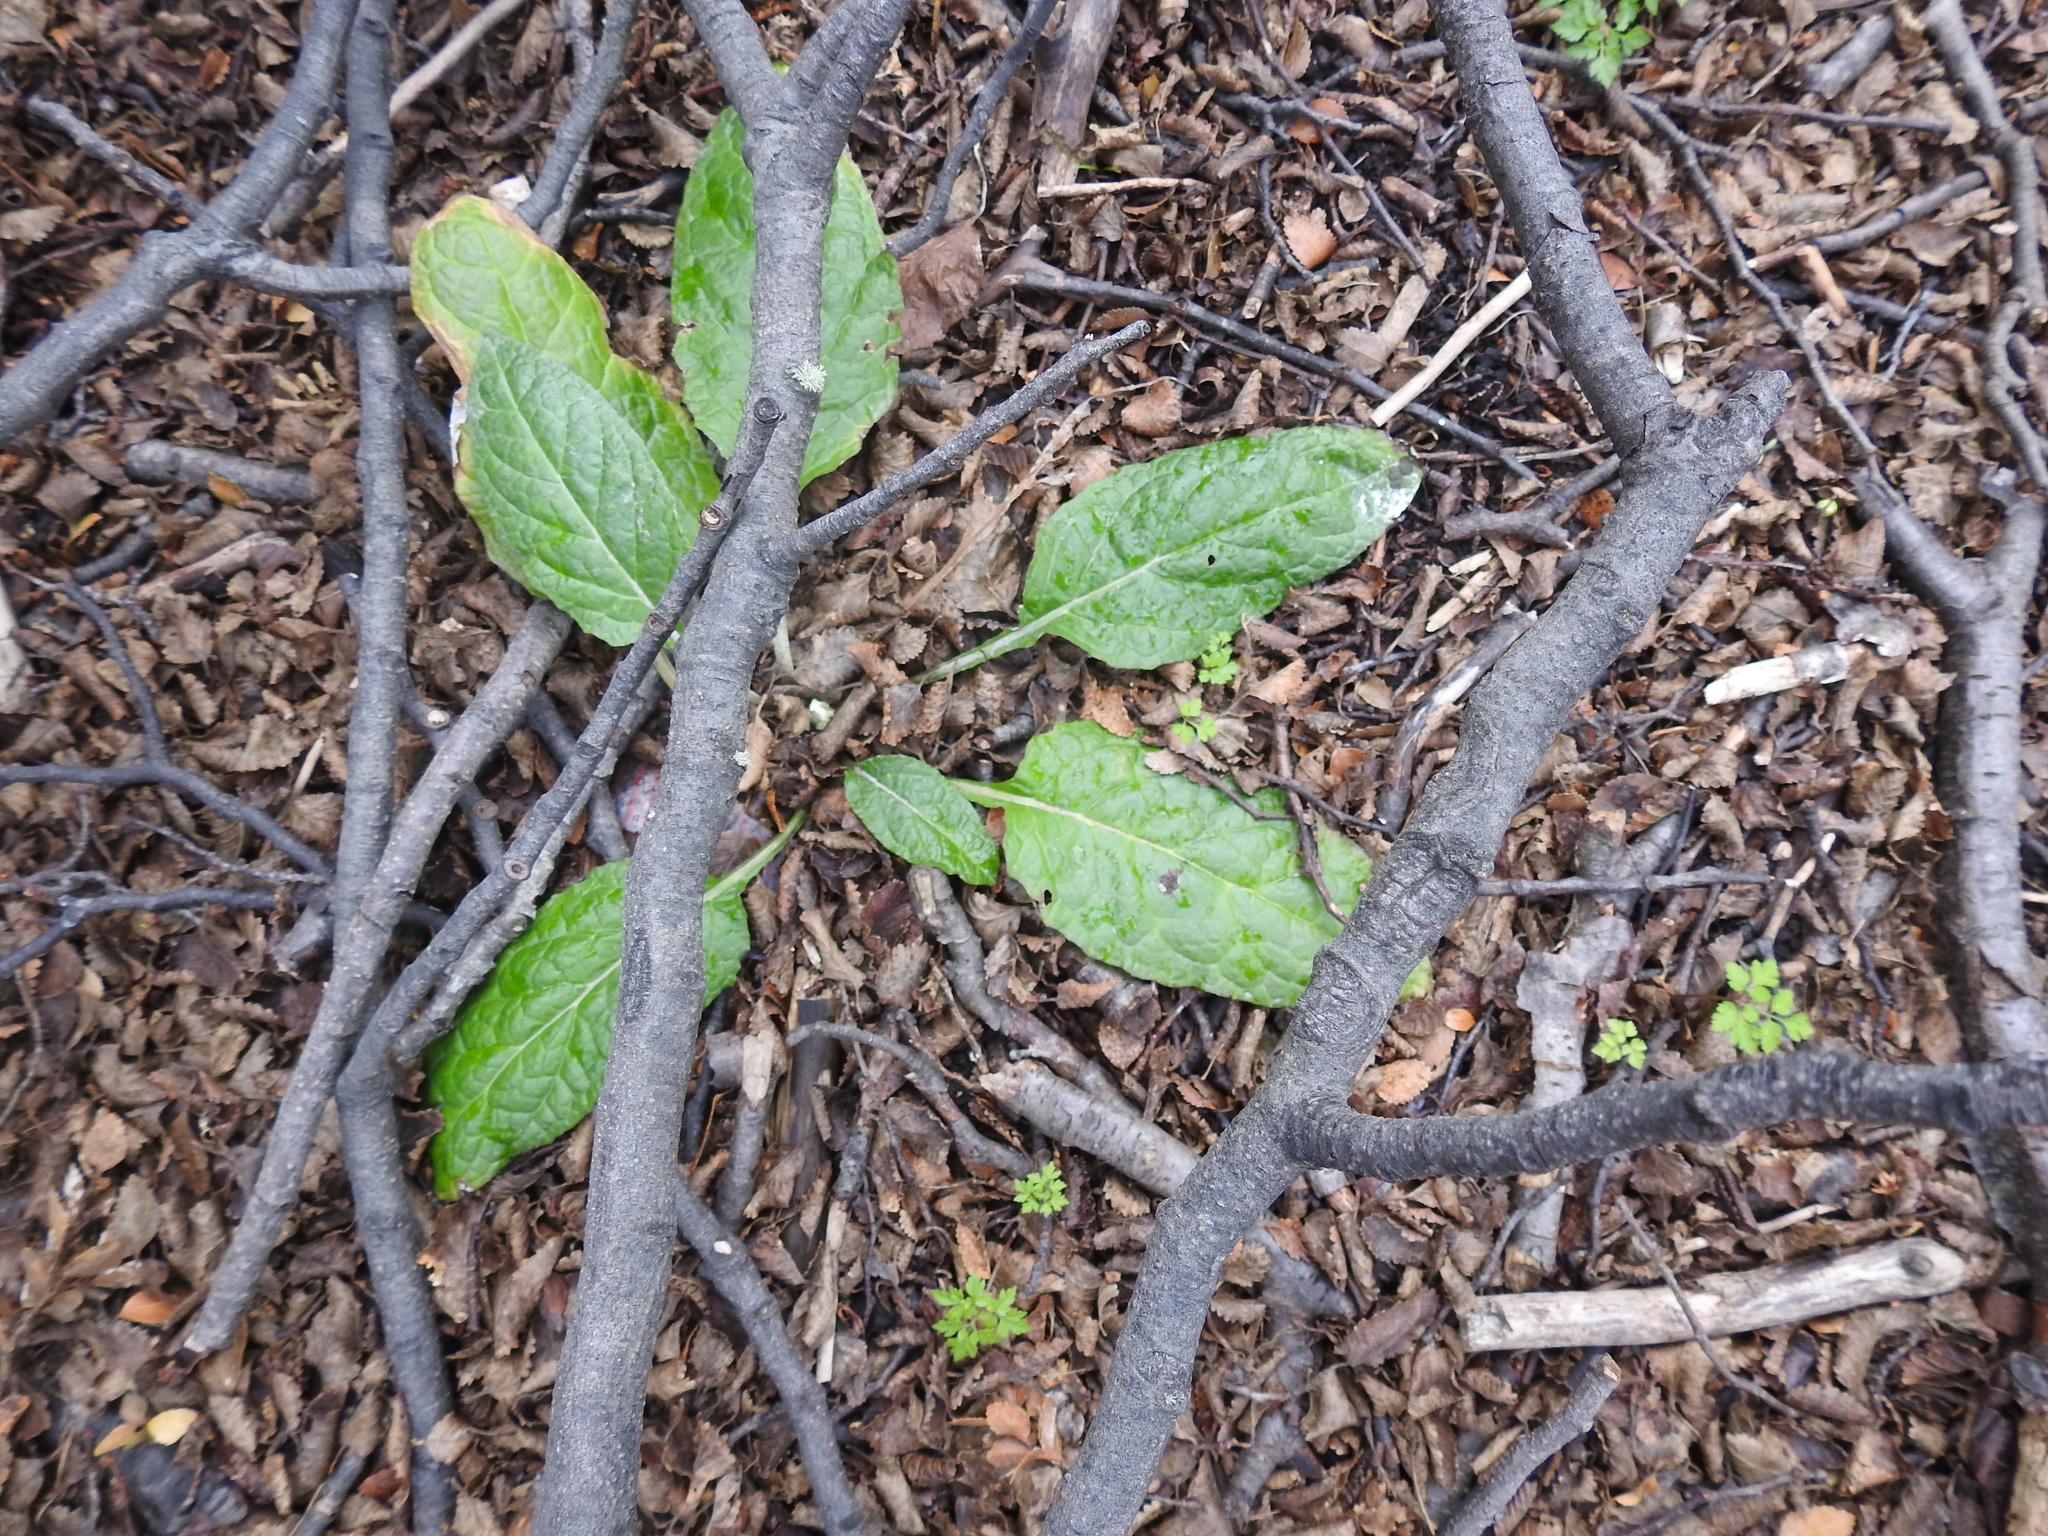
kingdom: Plantae
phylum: Tracheophyta
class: Magnoliopsida
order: Asterales
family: Asteraceae
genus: Adenocaulon
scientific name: Adenocaulon chilense
